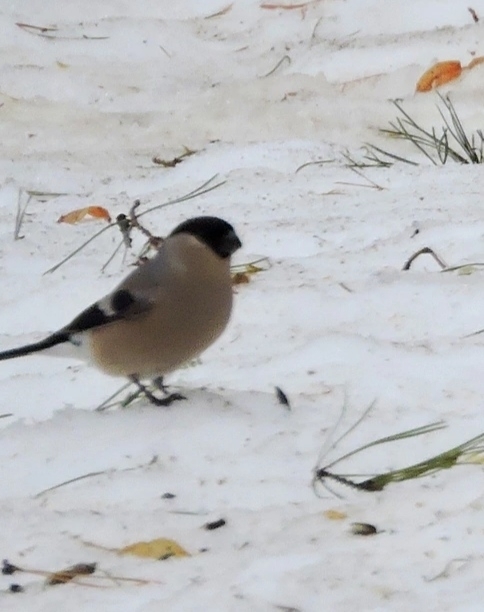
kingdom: Animalia
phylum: Chordata
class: Aves
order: Passeriformes
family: Fringillidae
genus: Pyrrhula
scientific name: Pyrrhula pyrrhula
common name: Eurasian bullfinch
